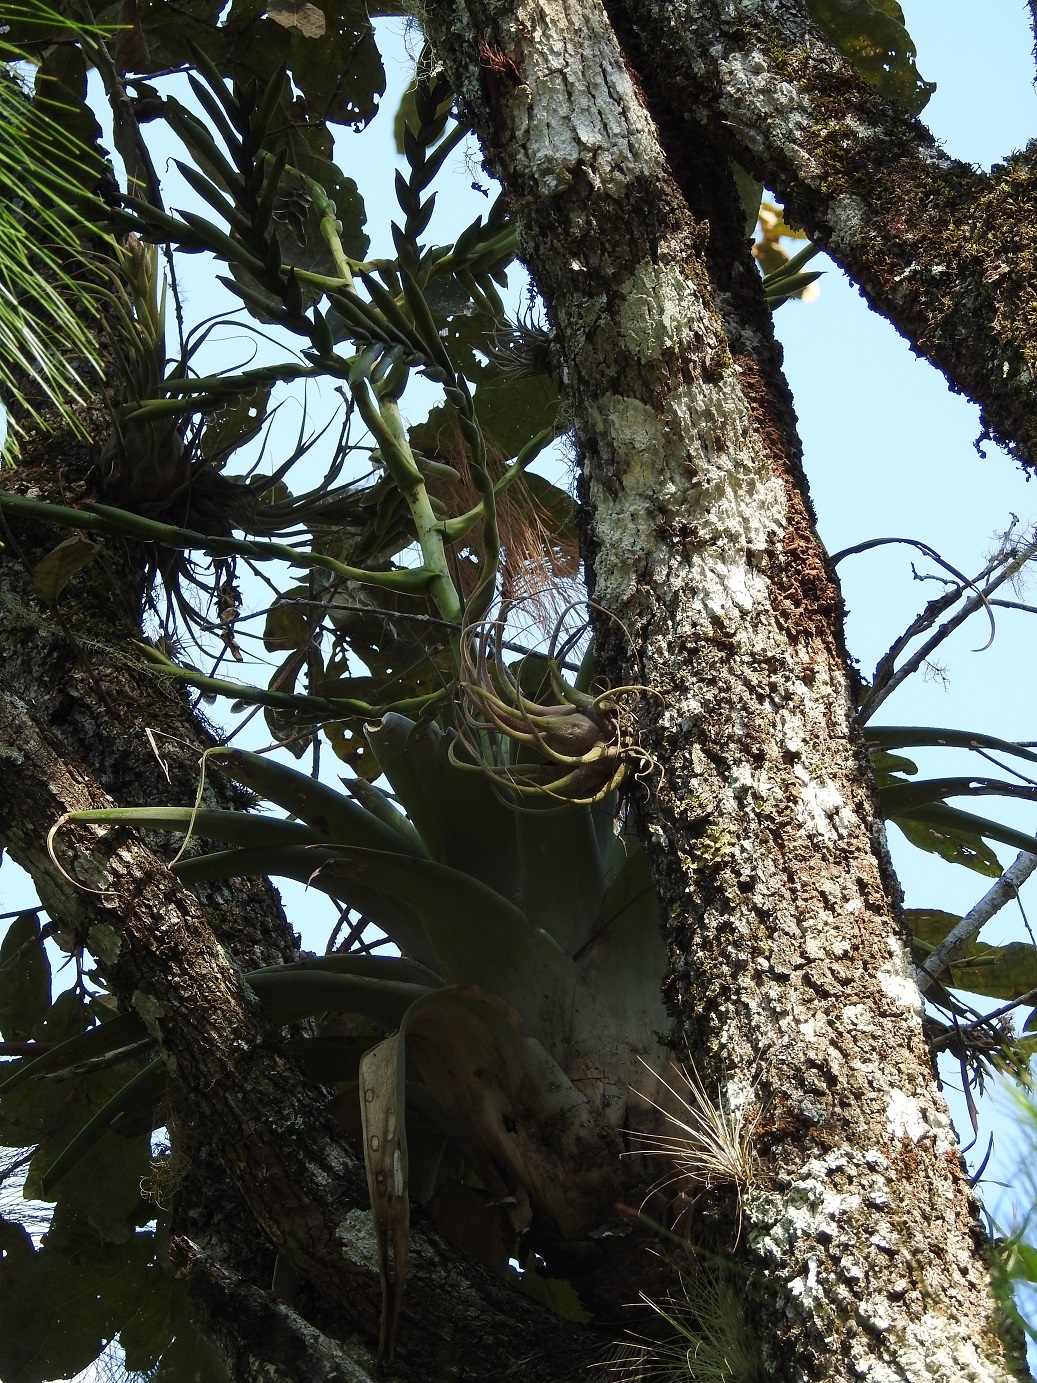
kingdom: Plantae
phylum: Tracheophyta
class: Liliopsida
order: Poales
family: Bromeliaceae
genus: Tillandsia
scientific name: Tillandsia comitanensis
